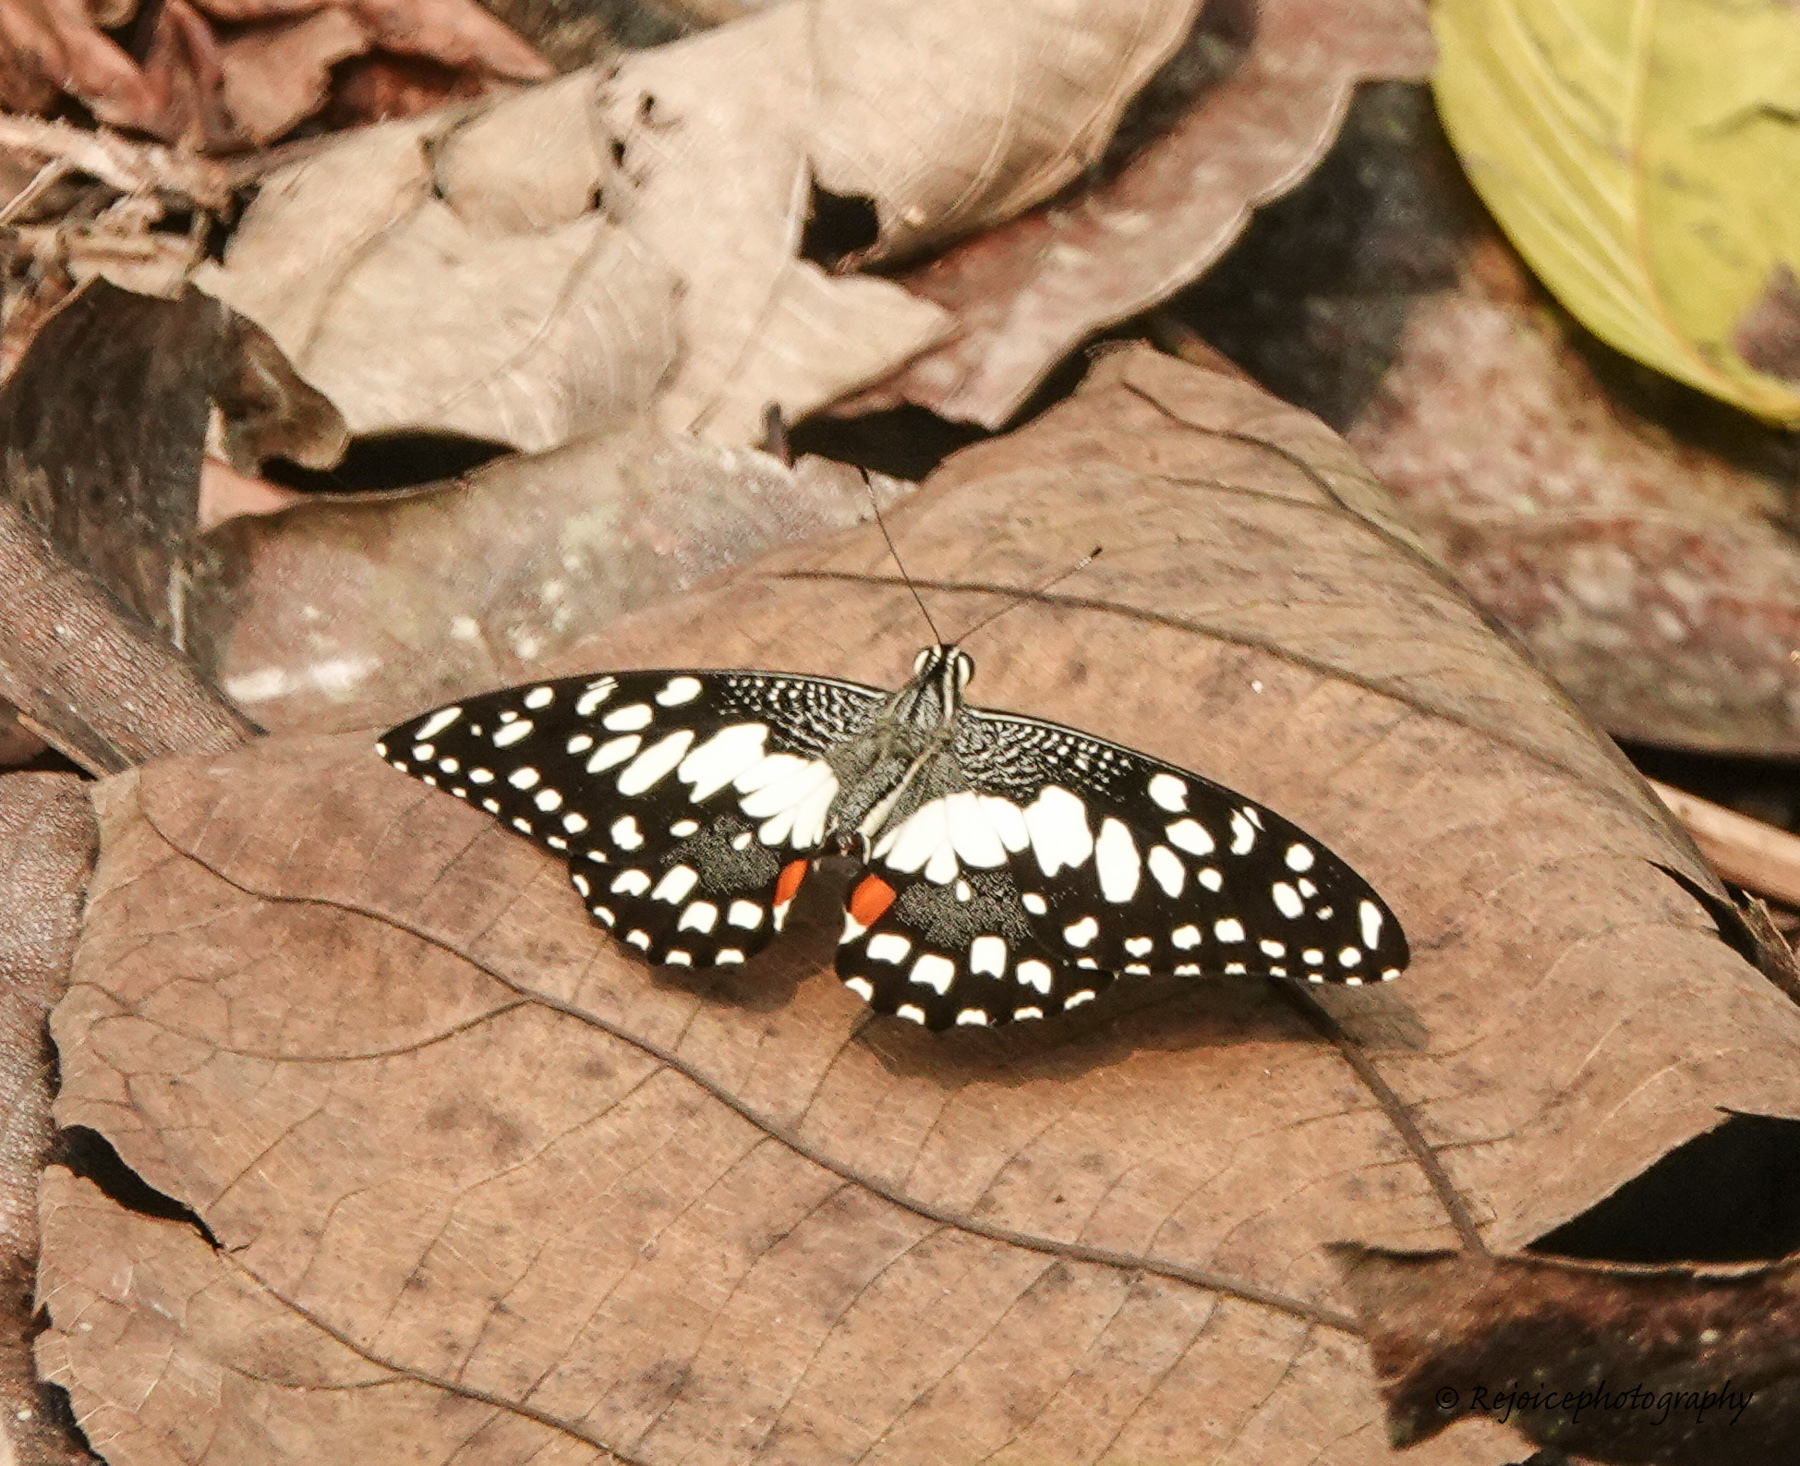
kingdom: Animalia
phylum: Arthropoda
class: Insecta
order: Lepidoptera
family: Papilionidae
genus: Papilio
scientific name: Papilio demoleus
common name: Lime butterfly
